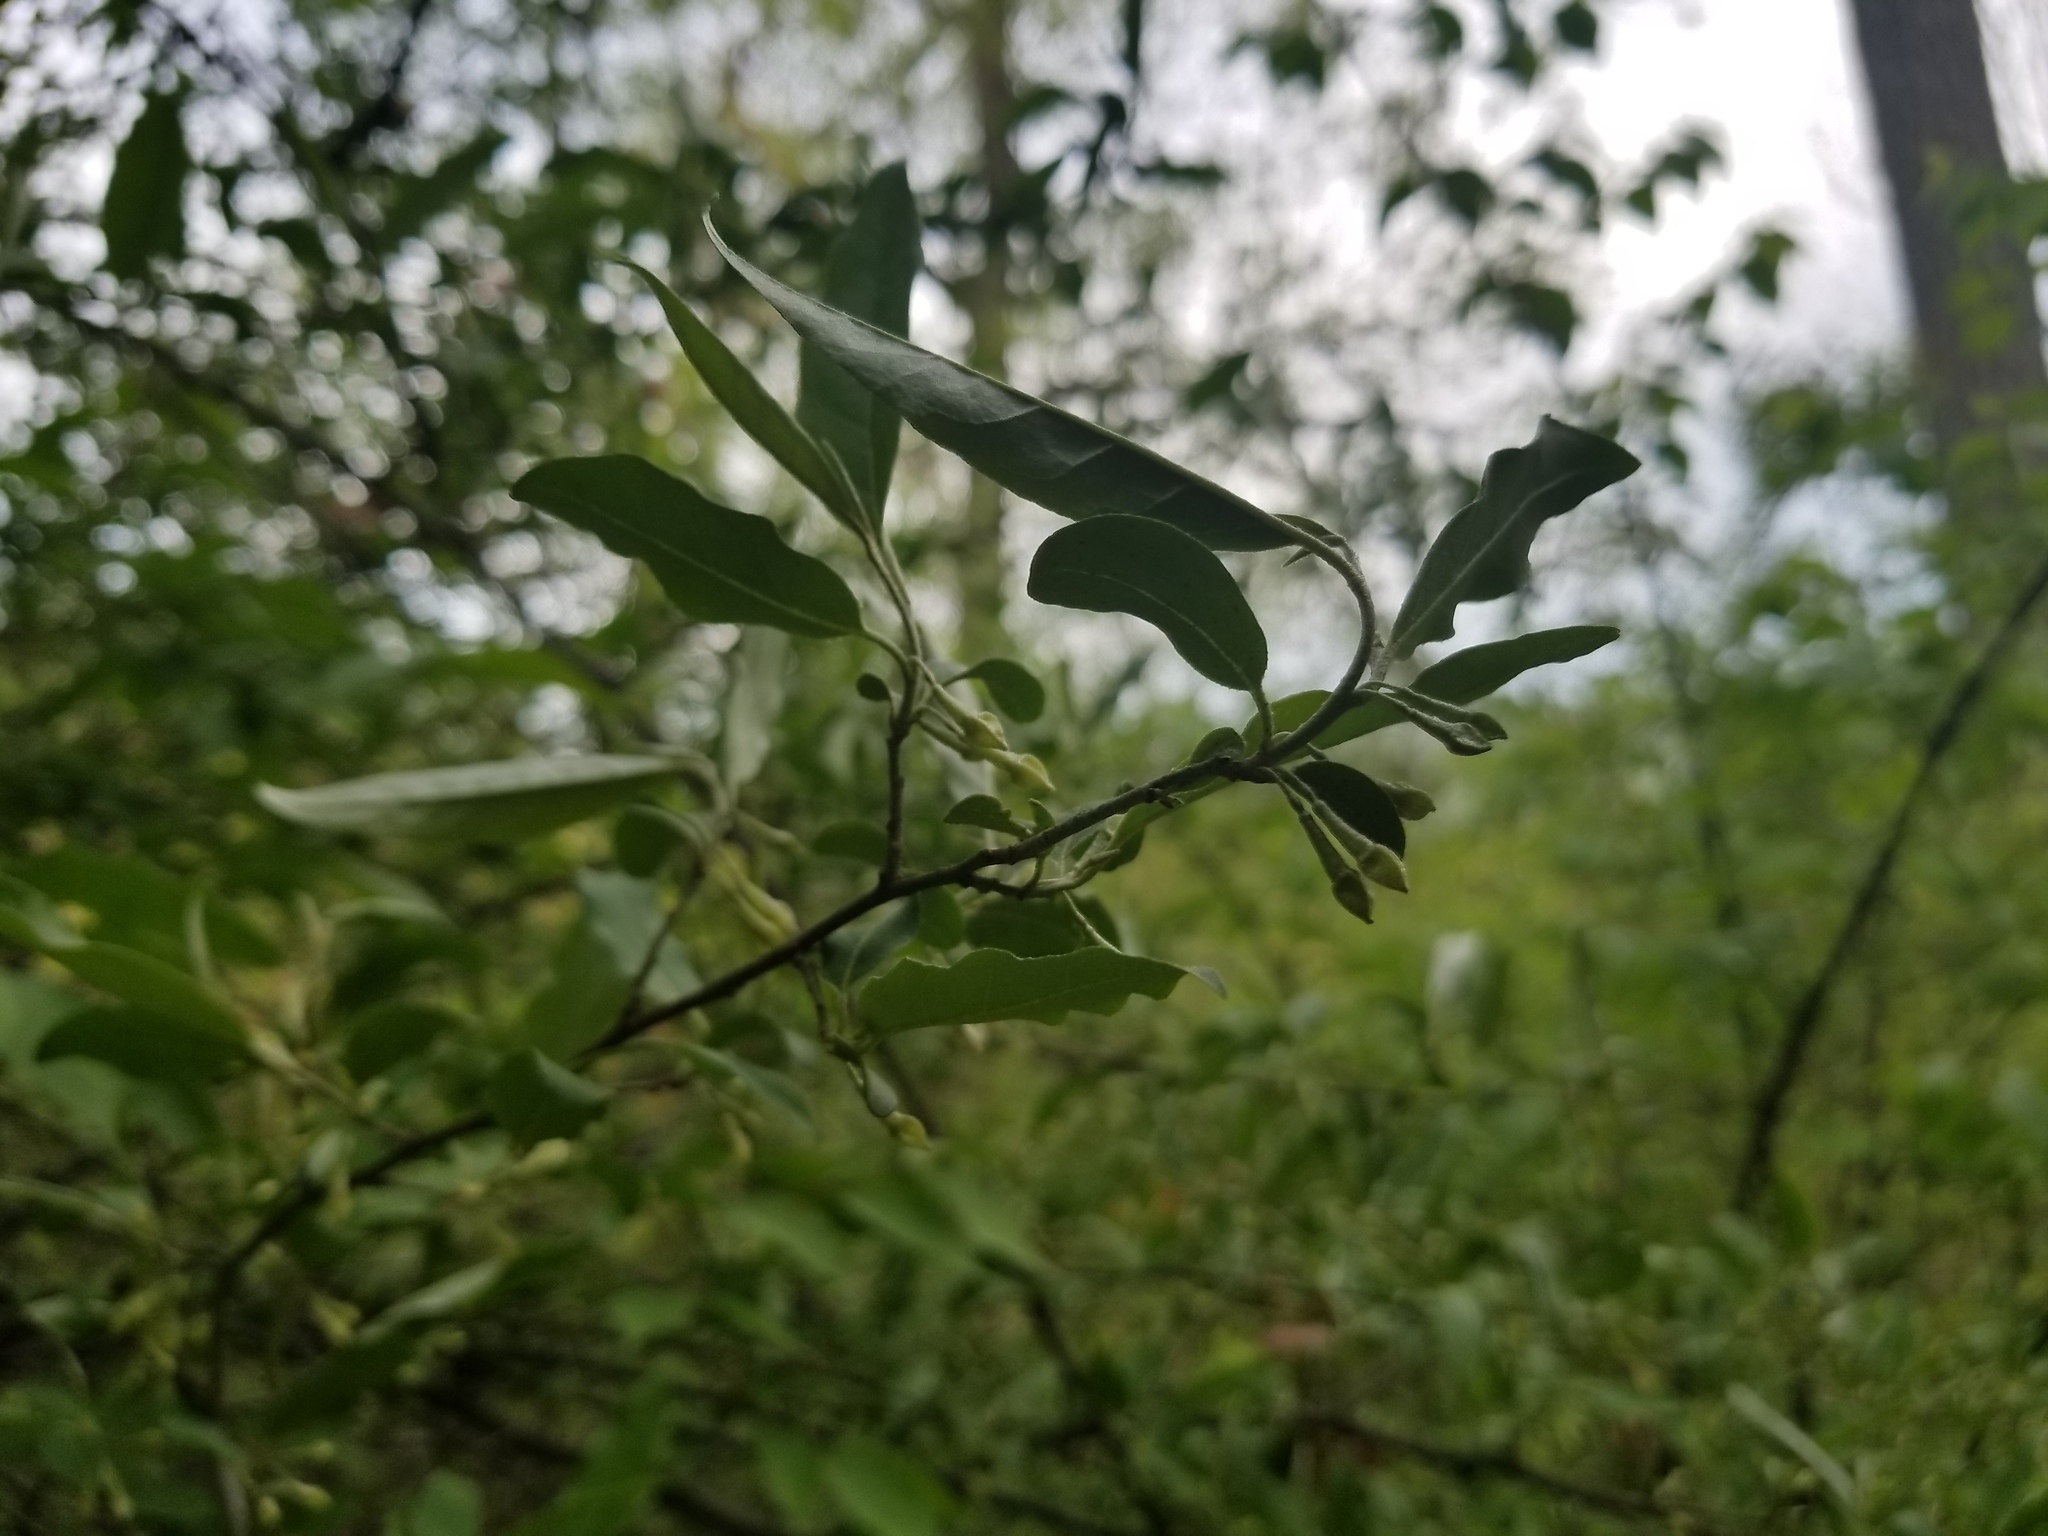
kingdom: Plantae
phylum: Tracheophyta
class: Magnoliopsida
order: Rosales
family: Elaeagnaceae
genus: Elaeagnus
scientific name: Elaeagnus umbellata
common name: Autumn olive
